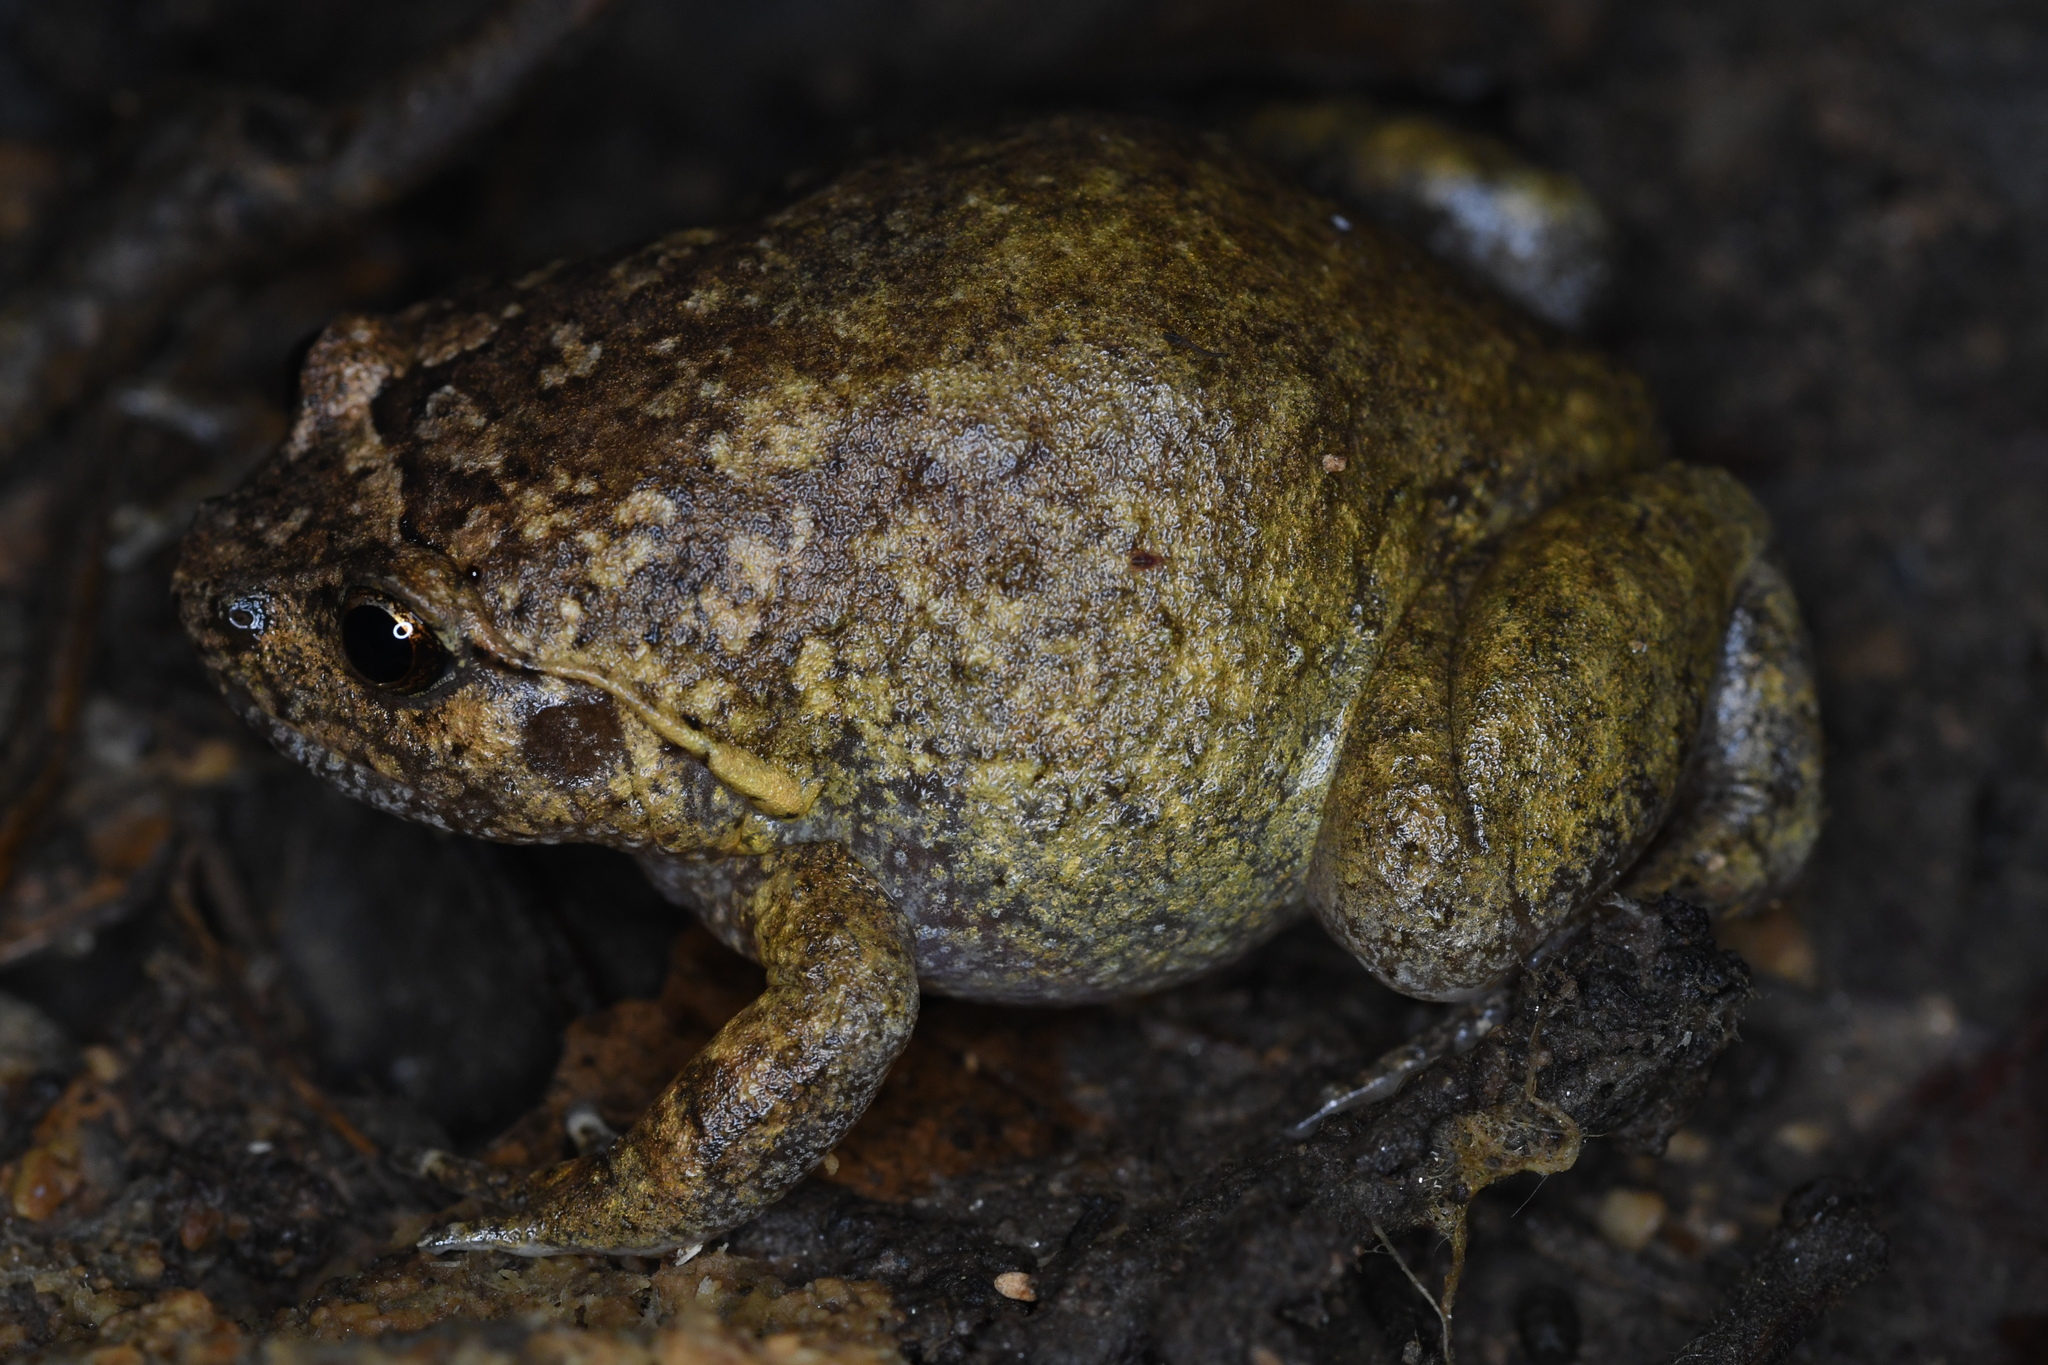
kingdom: Animalia
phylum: Chordata
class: Amphibia
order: Anura
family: Microhylidae
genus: Plethodontohyla
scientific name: Plethodontohyla alluaudi
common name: Fort dauphin digging frog
